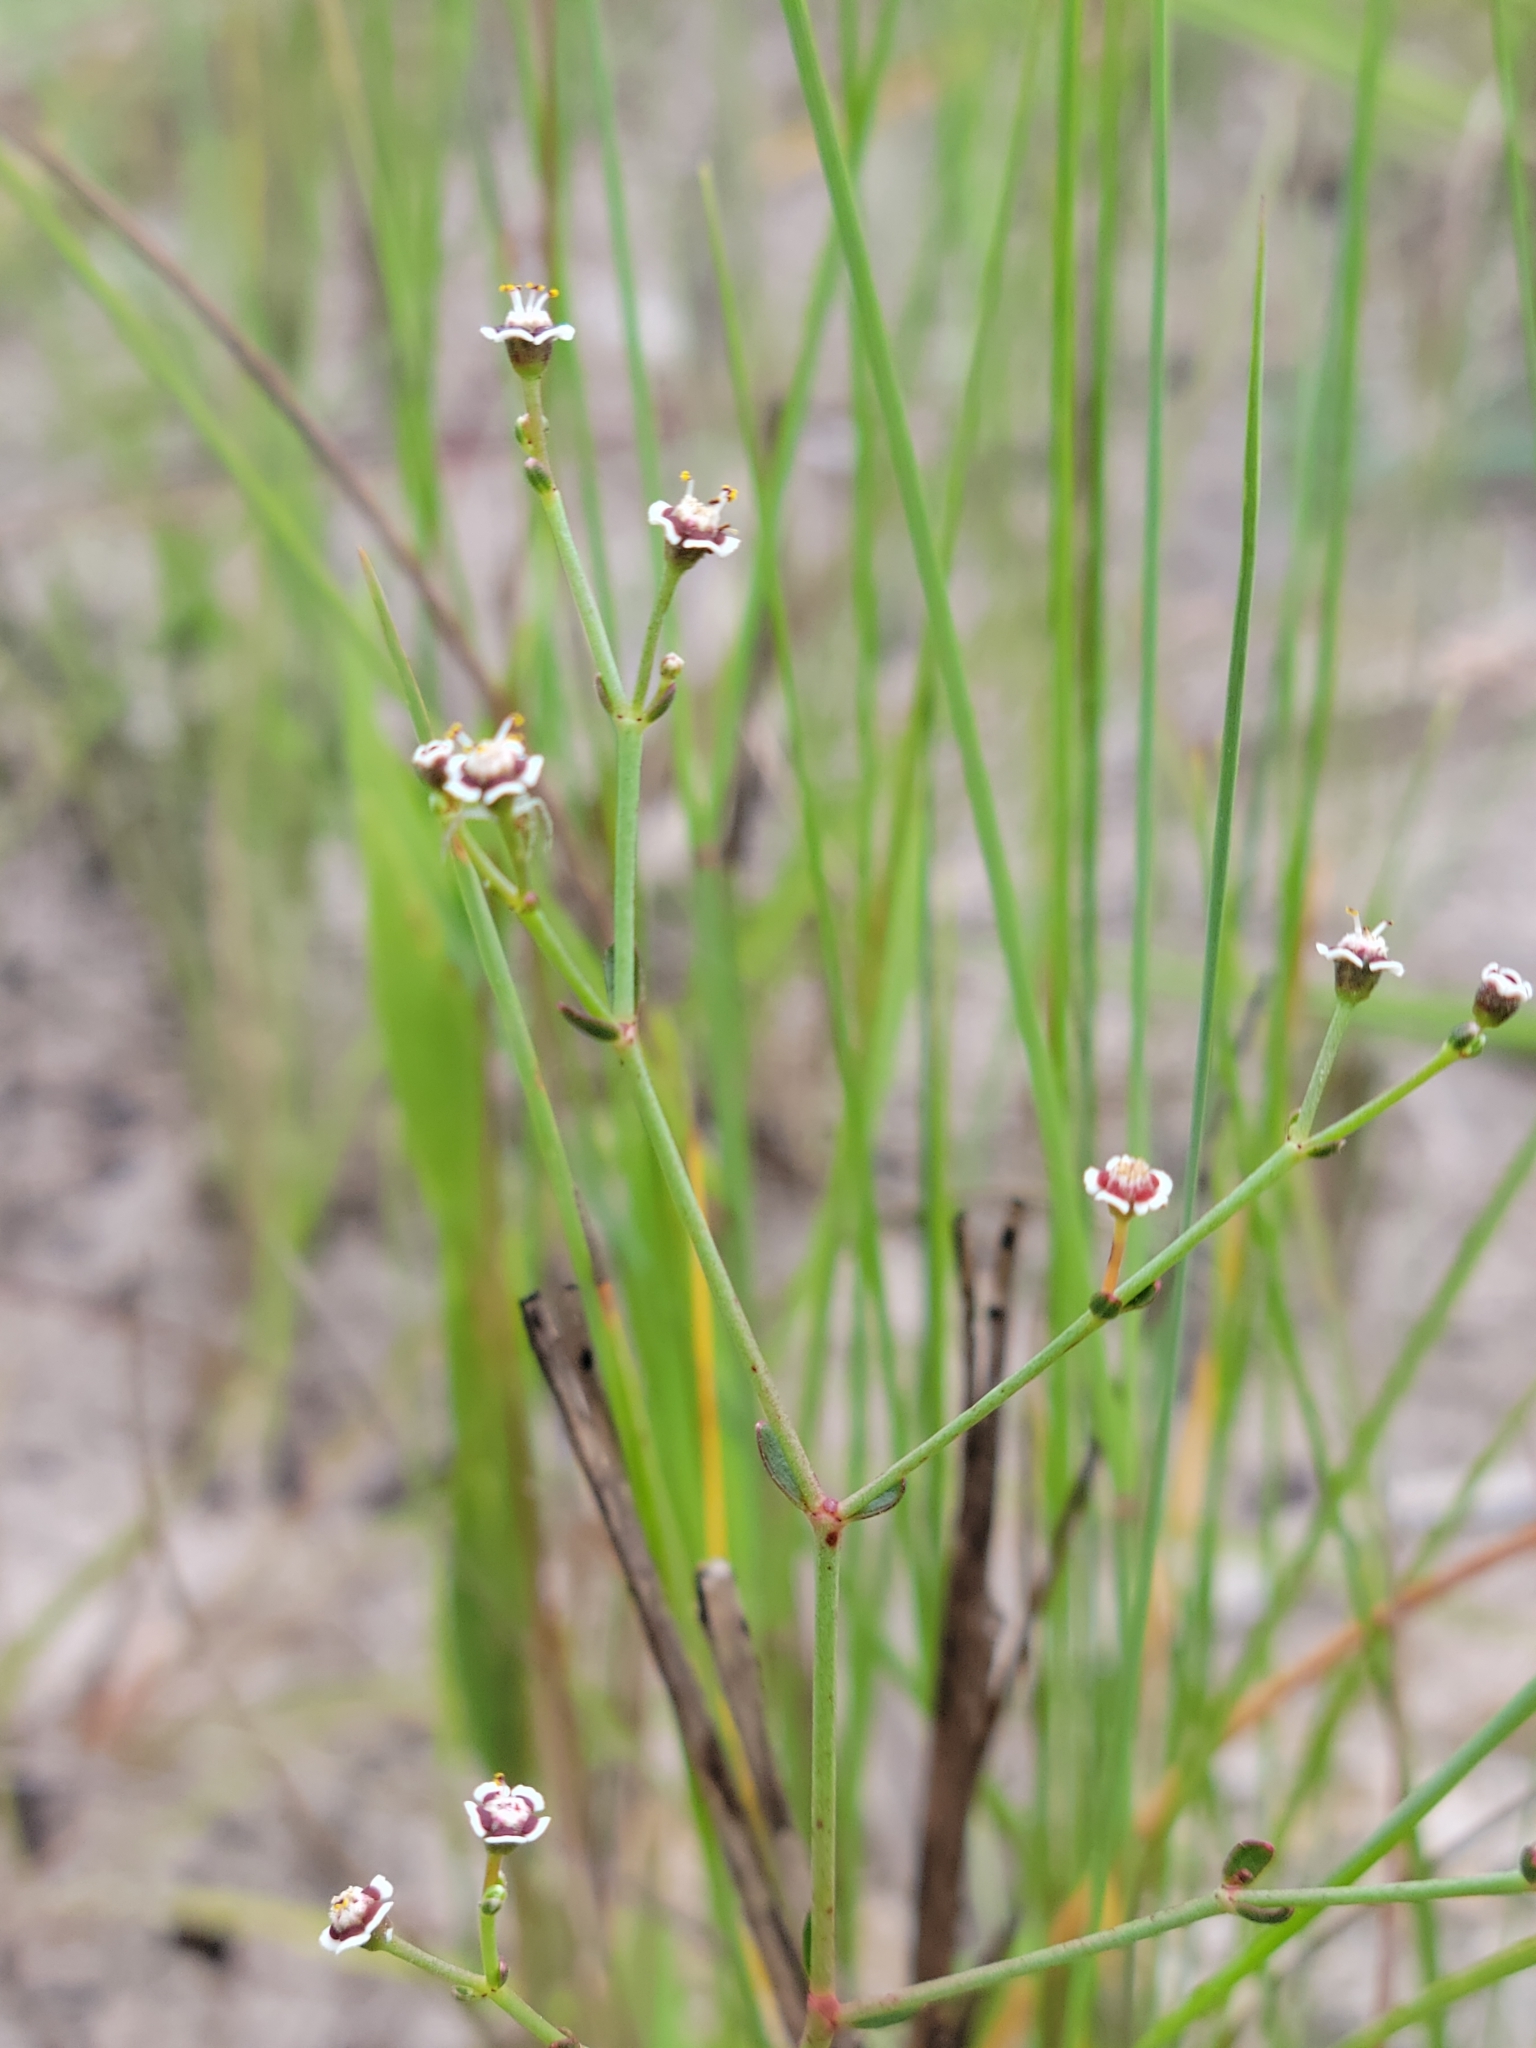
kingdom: Plantae
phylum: Tracheophyta
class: Magnoliopsida
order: Malpighiales
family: Euphorbiaceae
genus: Euphorbia
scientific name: Euphorbia polyphylla
